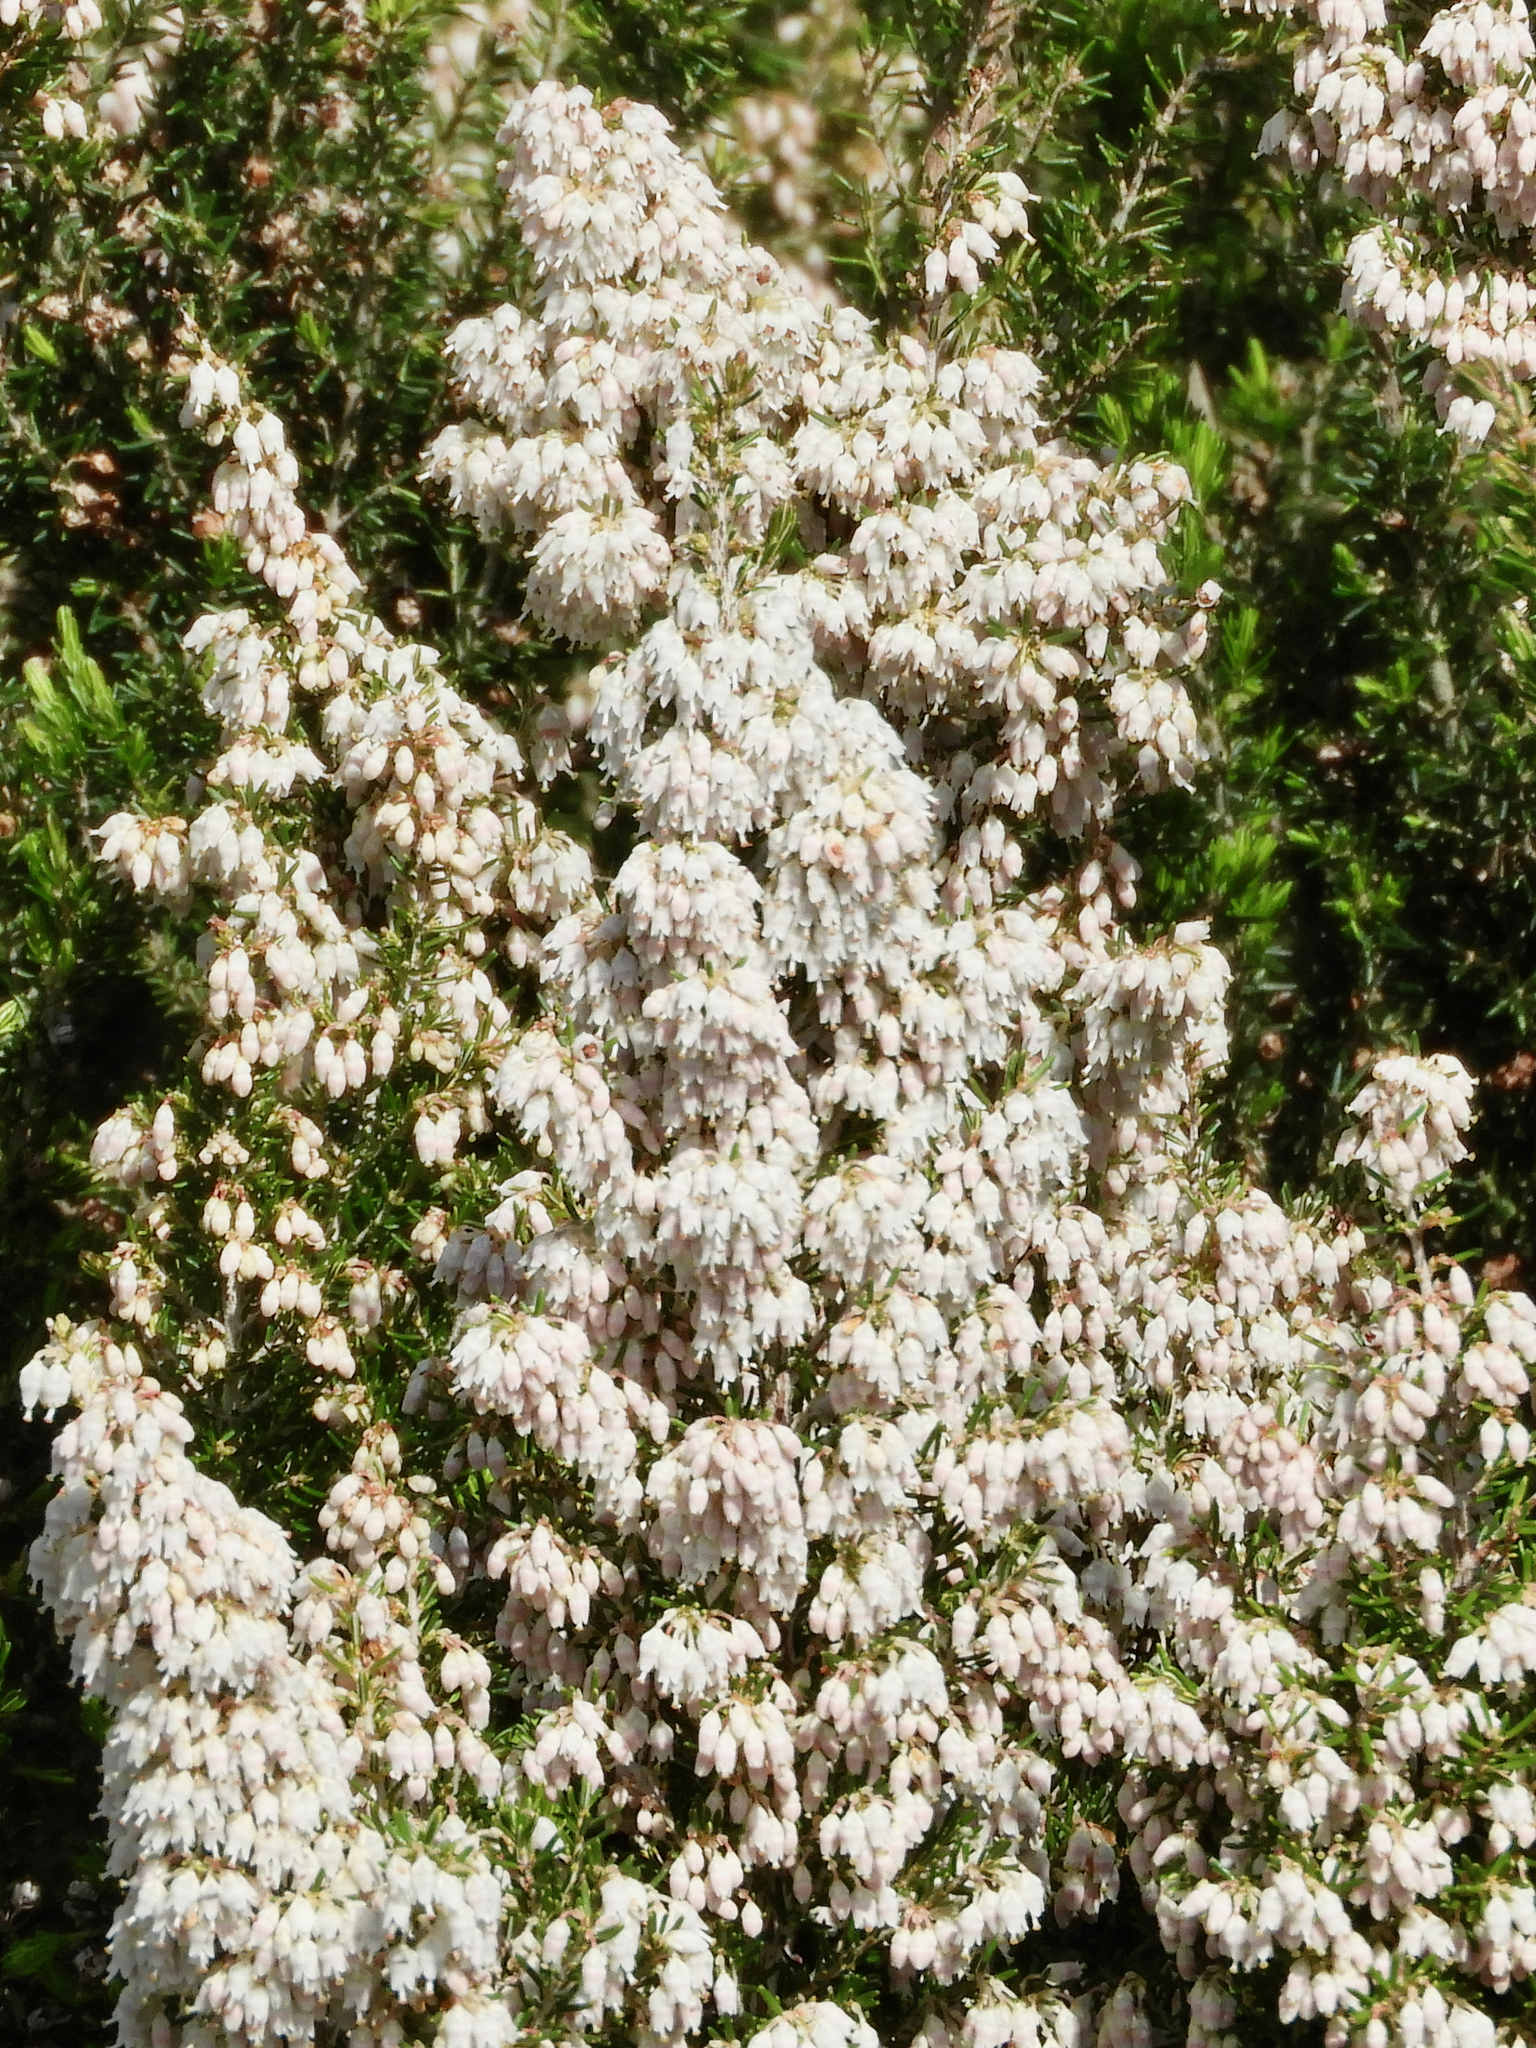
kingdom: Plantae
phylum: Tracheophyta
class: Magnoliopsida
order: Ericales
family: Ericaceae
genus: Erica
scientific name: Erica arborea
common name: Tree heath
